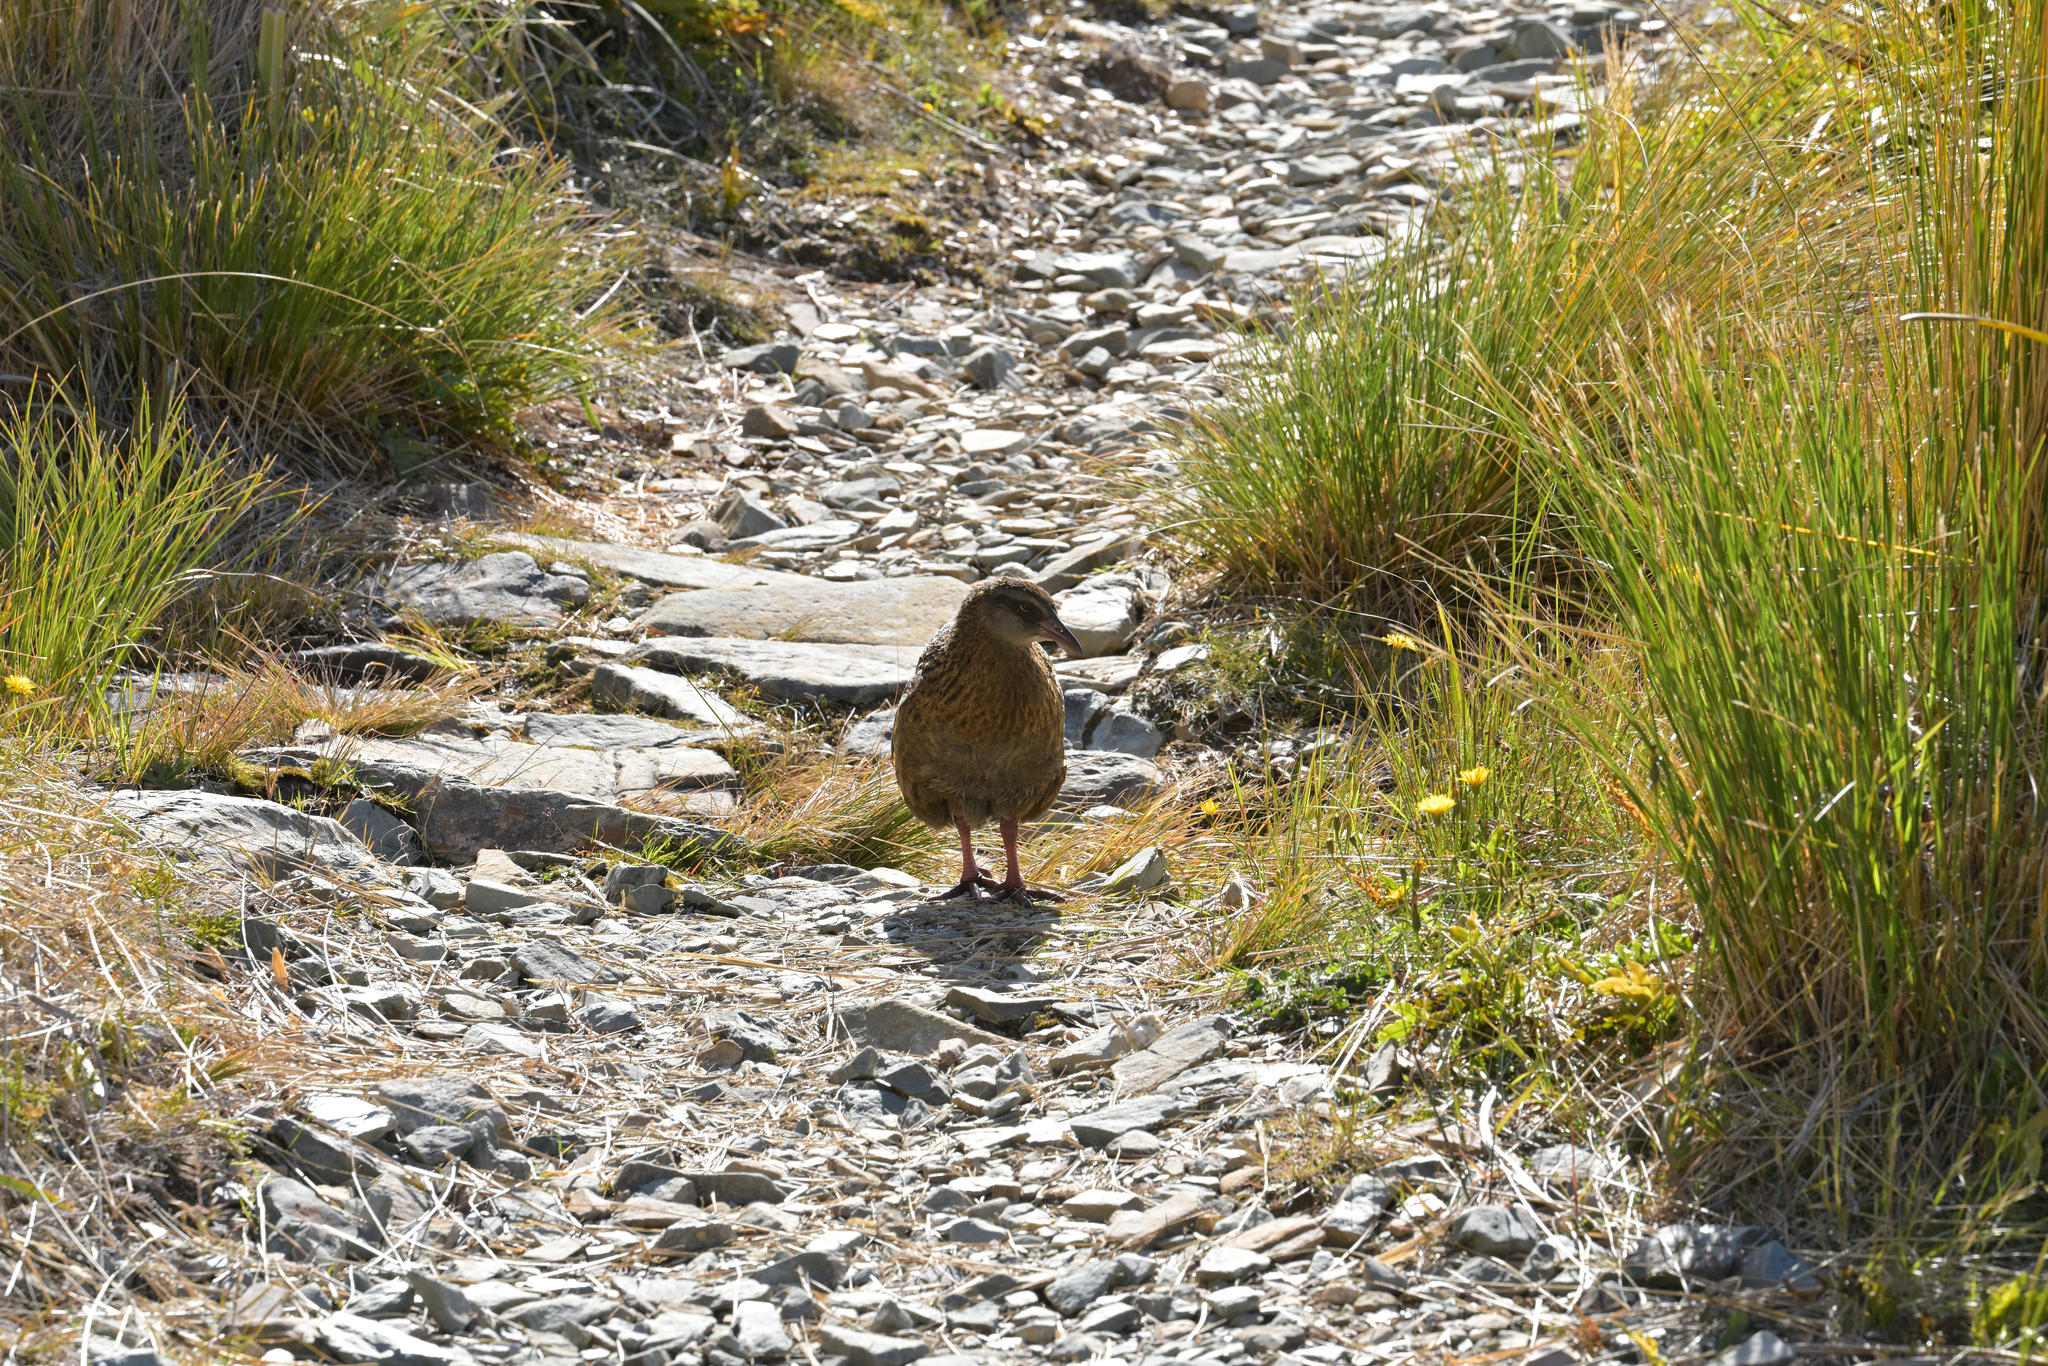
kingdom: Animalia
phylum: Chordata
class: Aves
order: Gruiformes
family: Rallidae
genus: Gallirallus
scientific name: Gallirallus australis
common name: Weka
